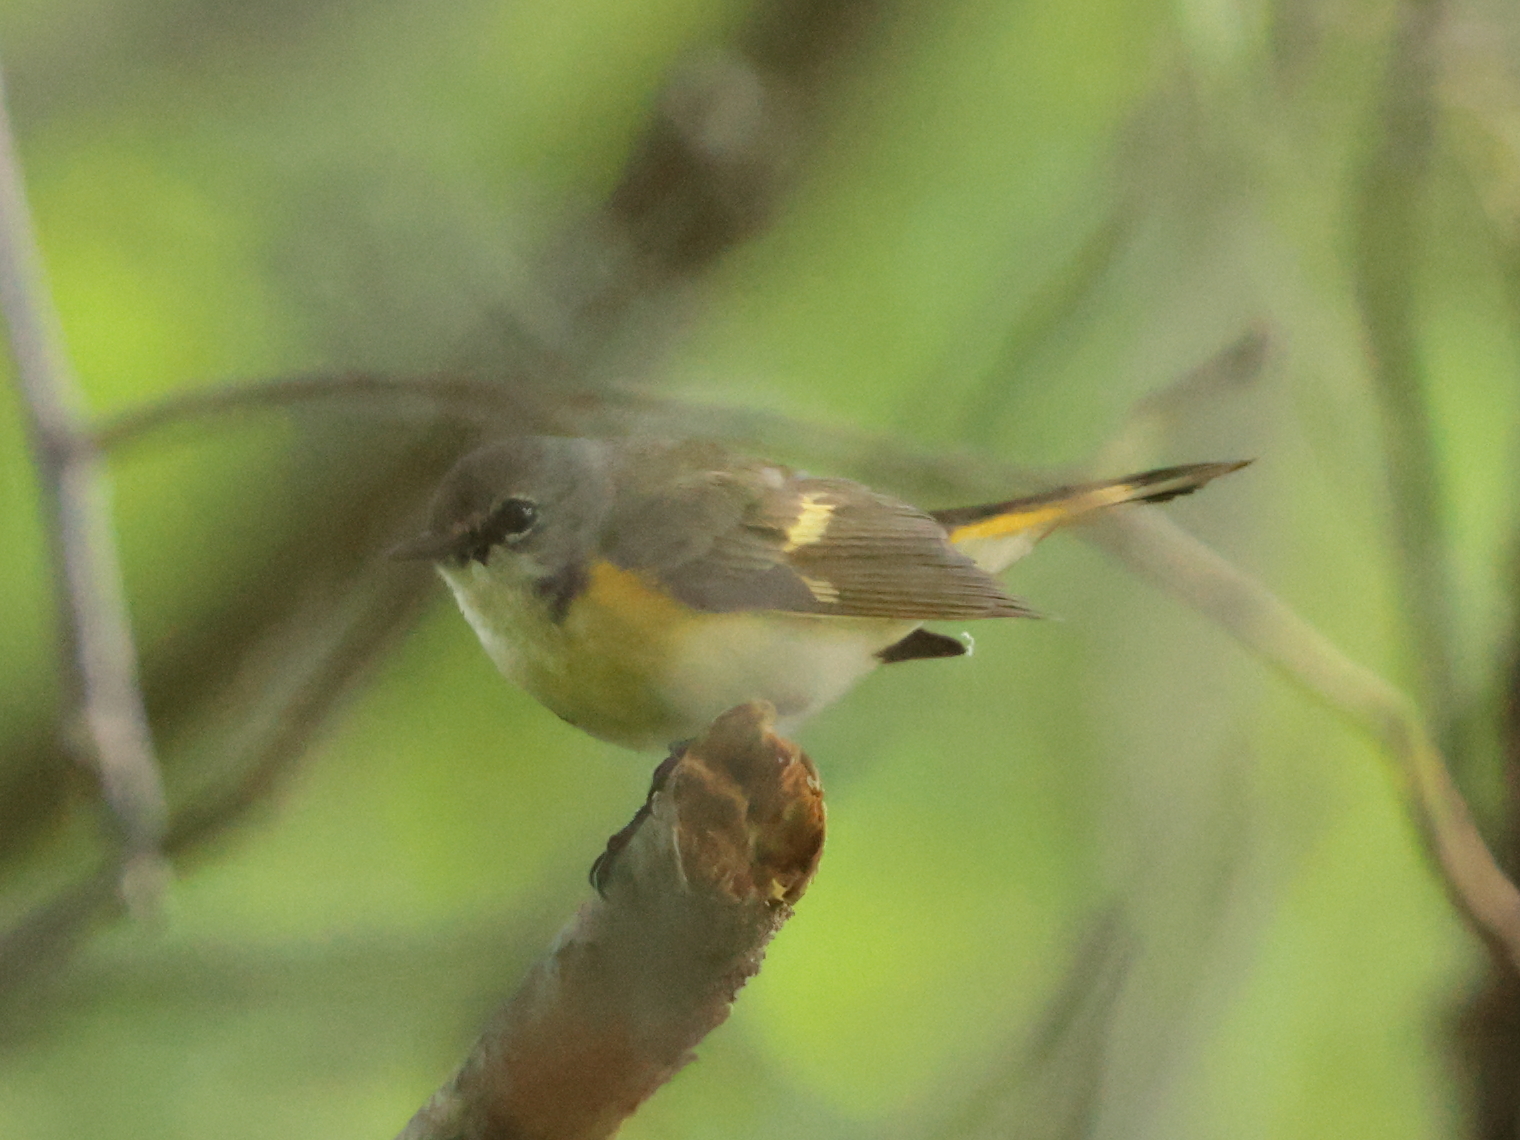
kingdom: Animalia
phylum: Chordata
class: Aves
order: Passeriformes
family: Parulidae
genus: Setophaga
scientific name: Setophaga ruticilla
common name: American redstart
